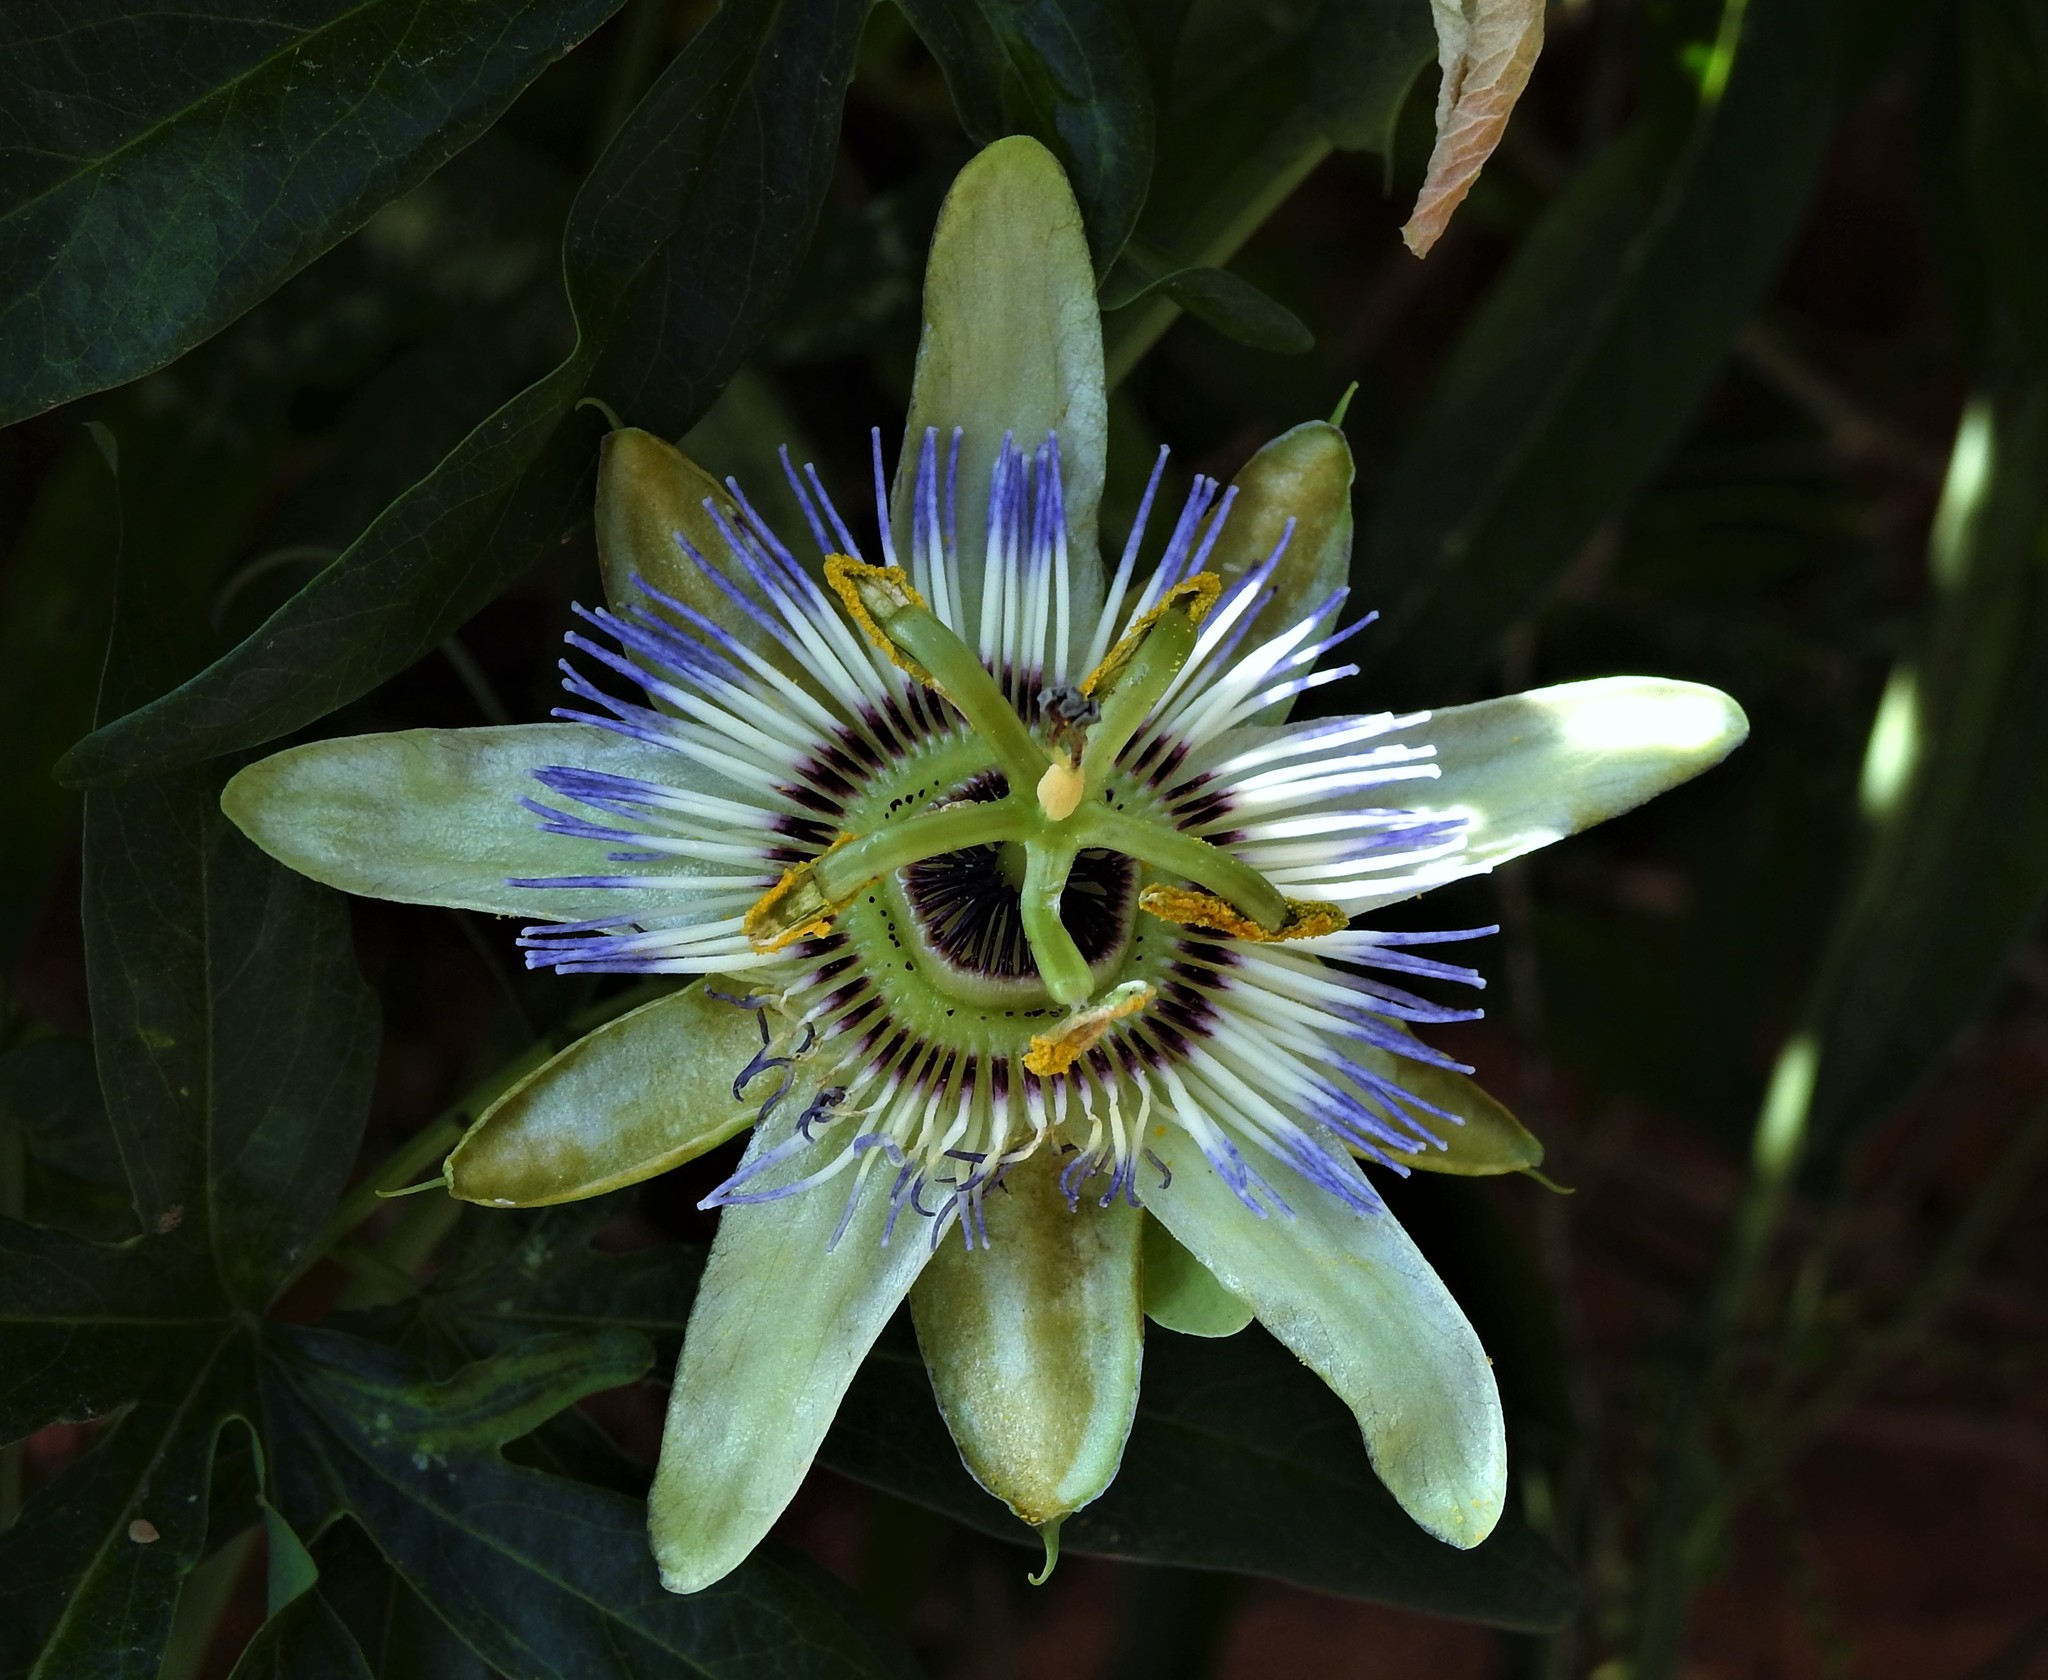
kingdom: Plantae
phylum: Tracheophyta
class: Magnoliopsida
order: Malpighiales
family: Passifloraceae
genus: Passiflora
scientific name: Passiflora caerulea
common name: Blue passionflower
